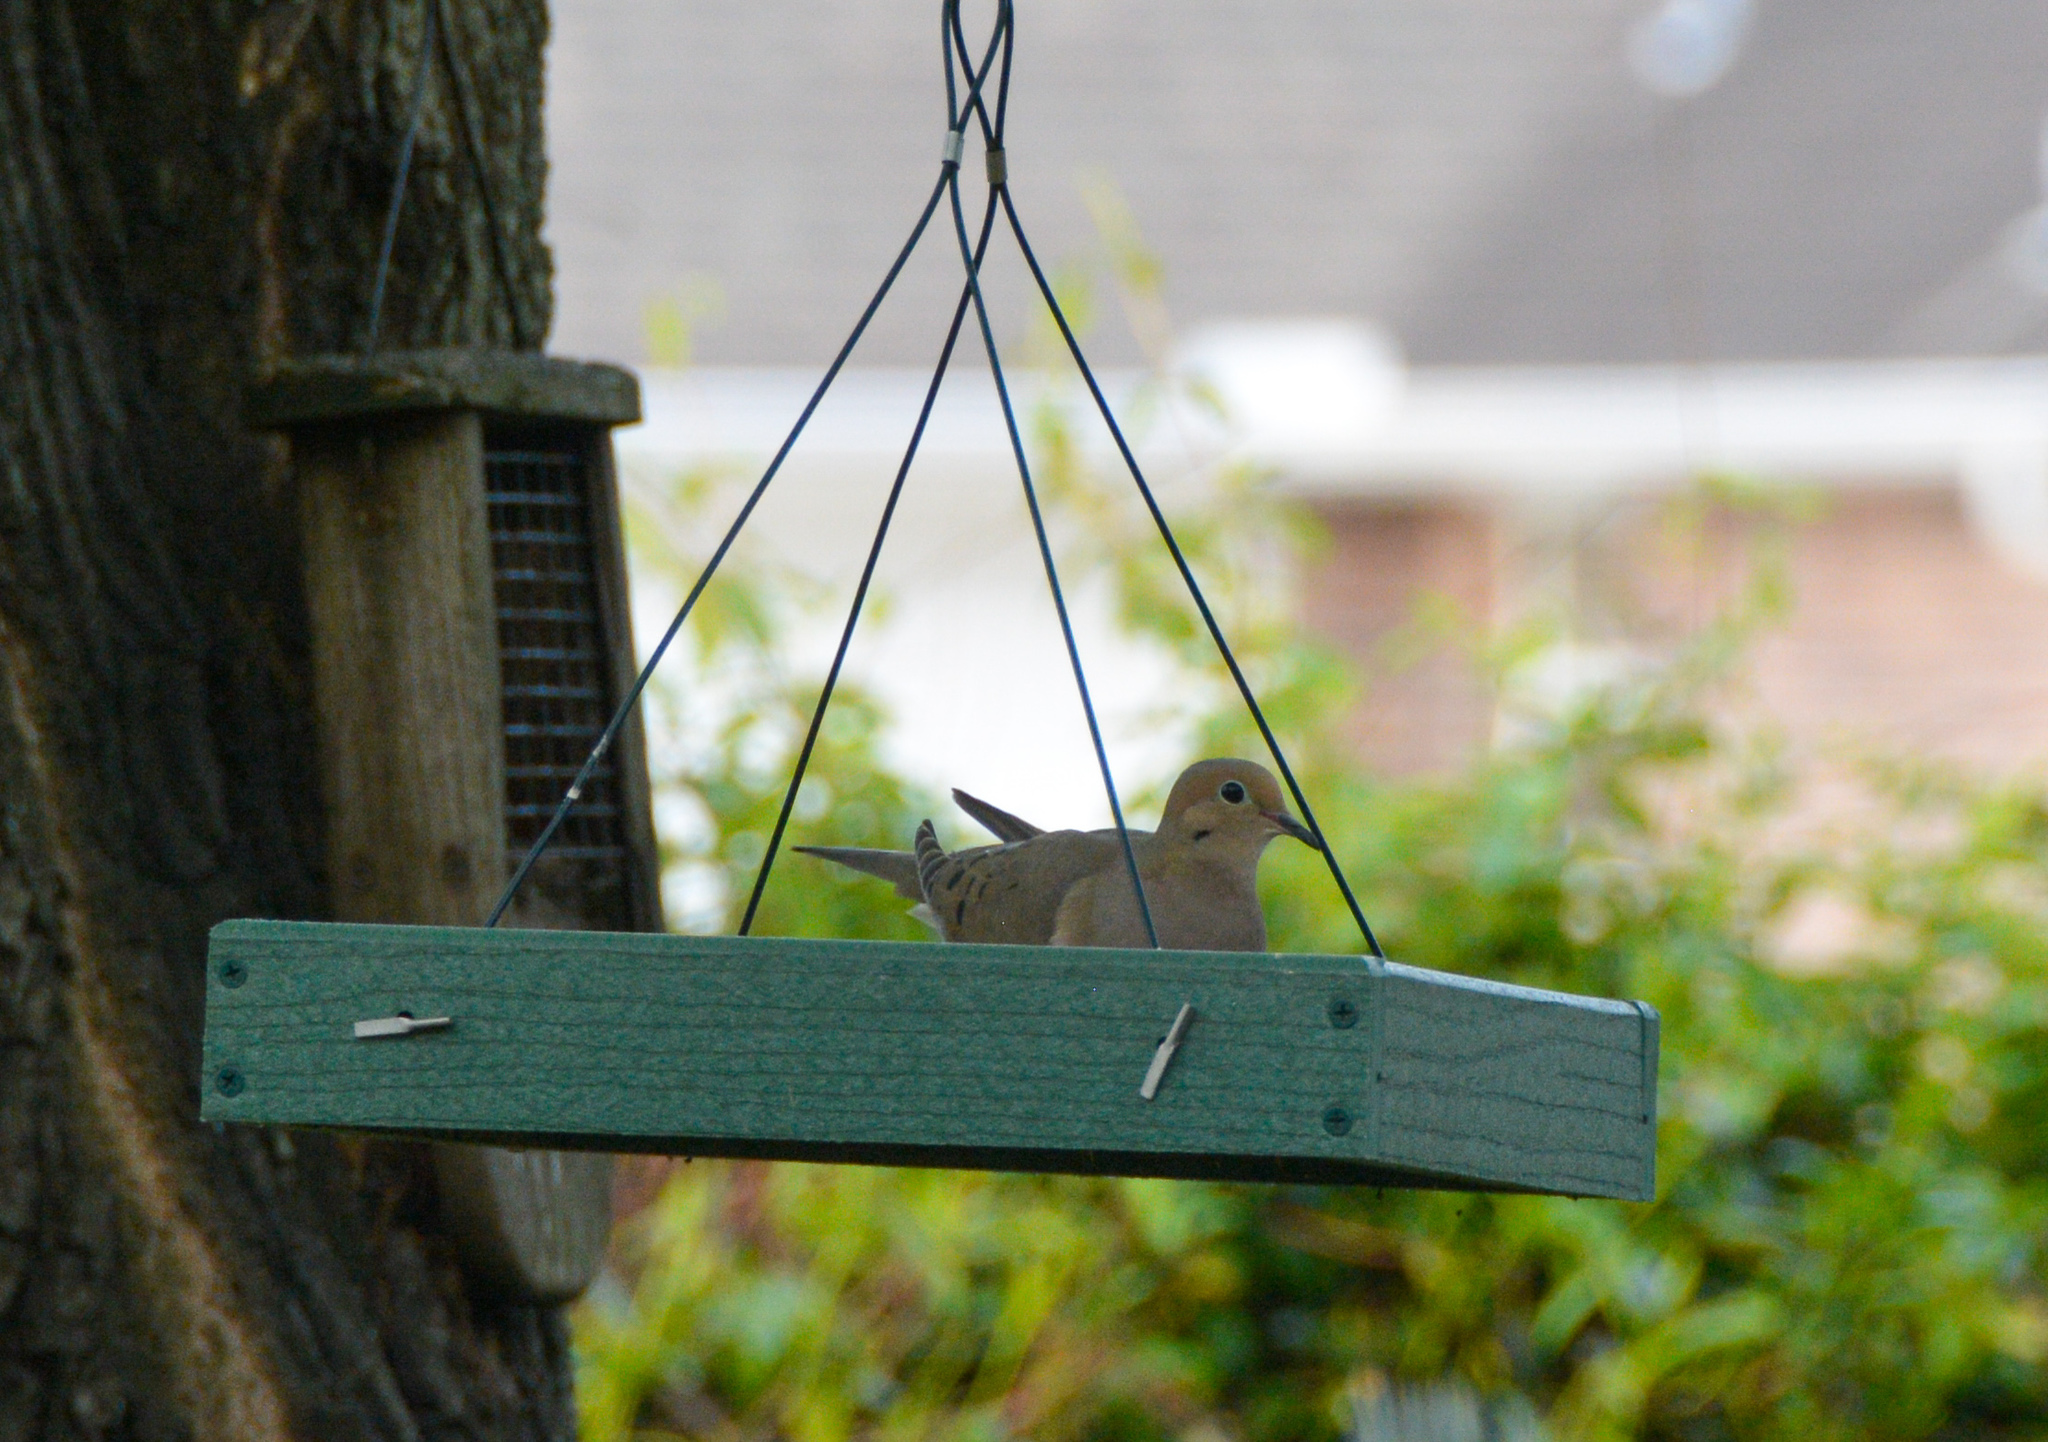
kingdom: Animalia
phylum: Chordata
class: Aves
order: Columbiformes
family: Columbidae
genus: Zenaida
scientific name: Zenaida macroura
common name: Mourning dove
